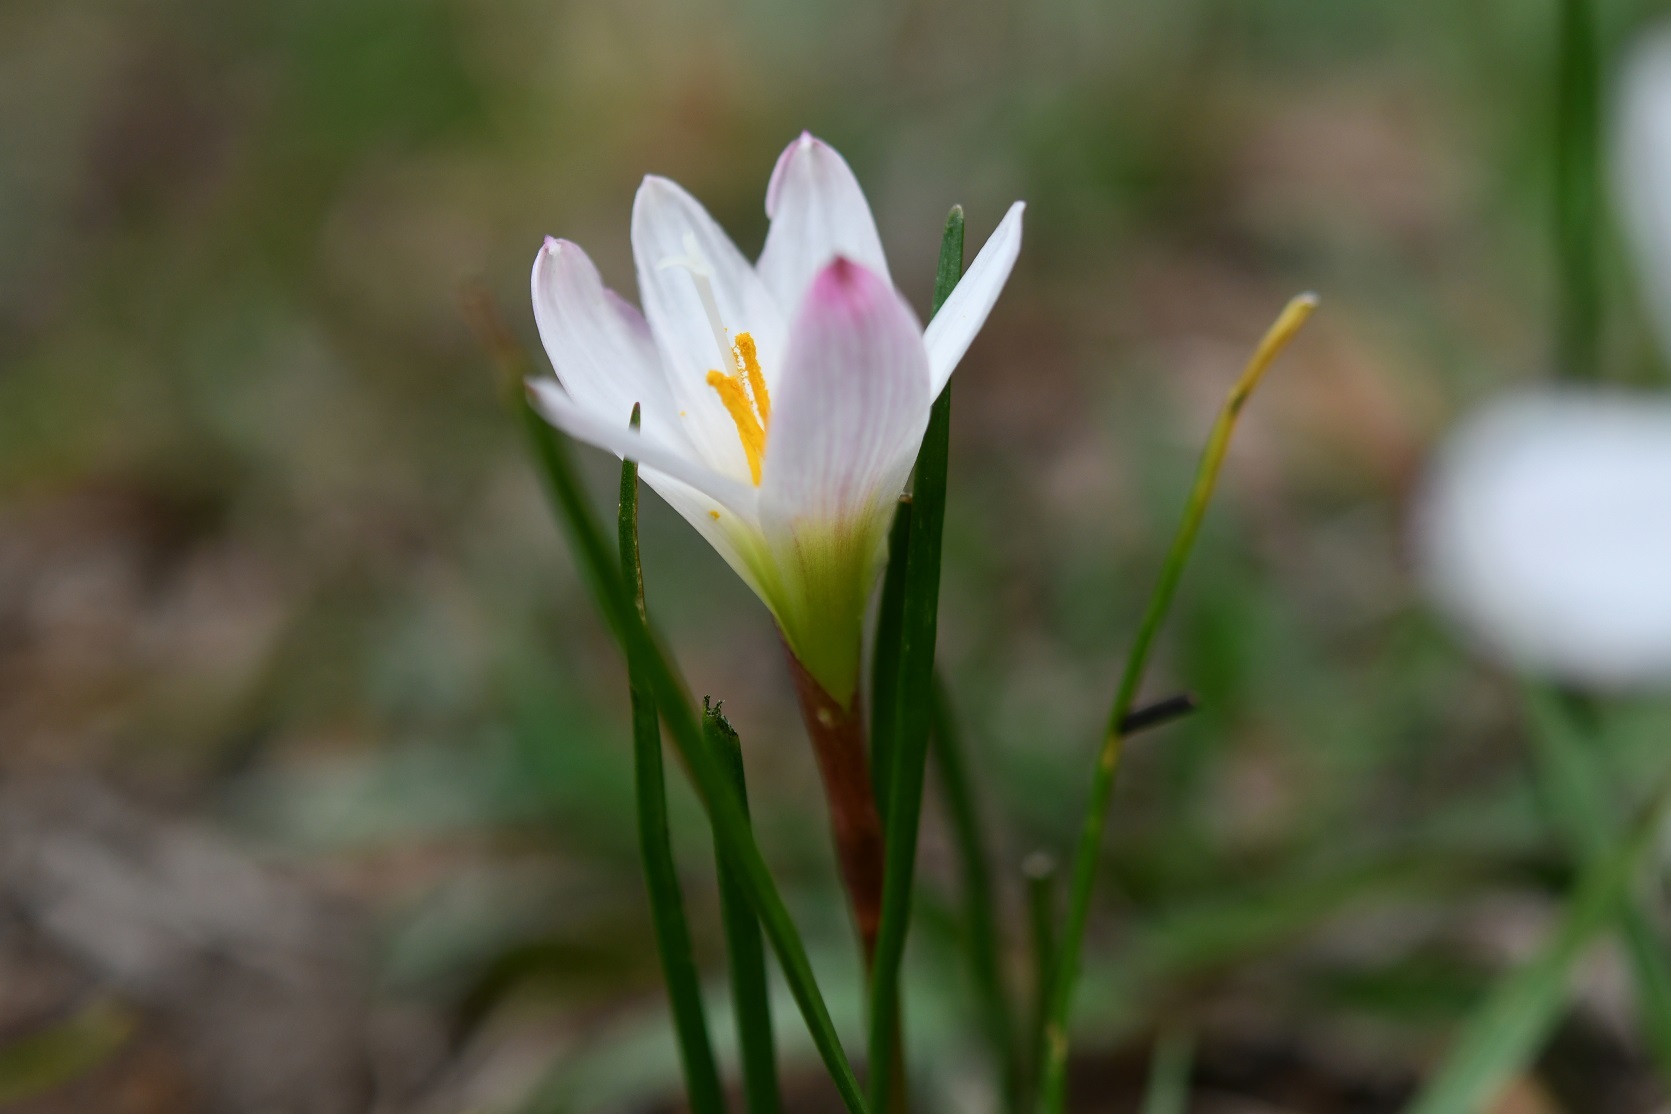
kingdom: Plantae
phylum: Tracheophyta
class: Liliopsida
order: Asparagales
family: Amaryllidaceae
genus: Zephyranthes
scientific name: Zephyranthes minuta
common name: Pink rain lily
